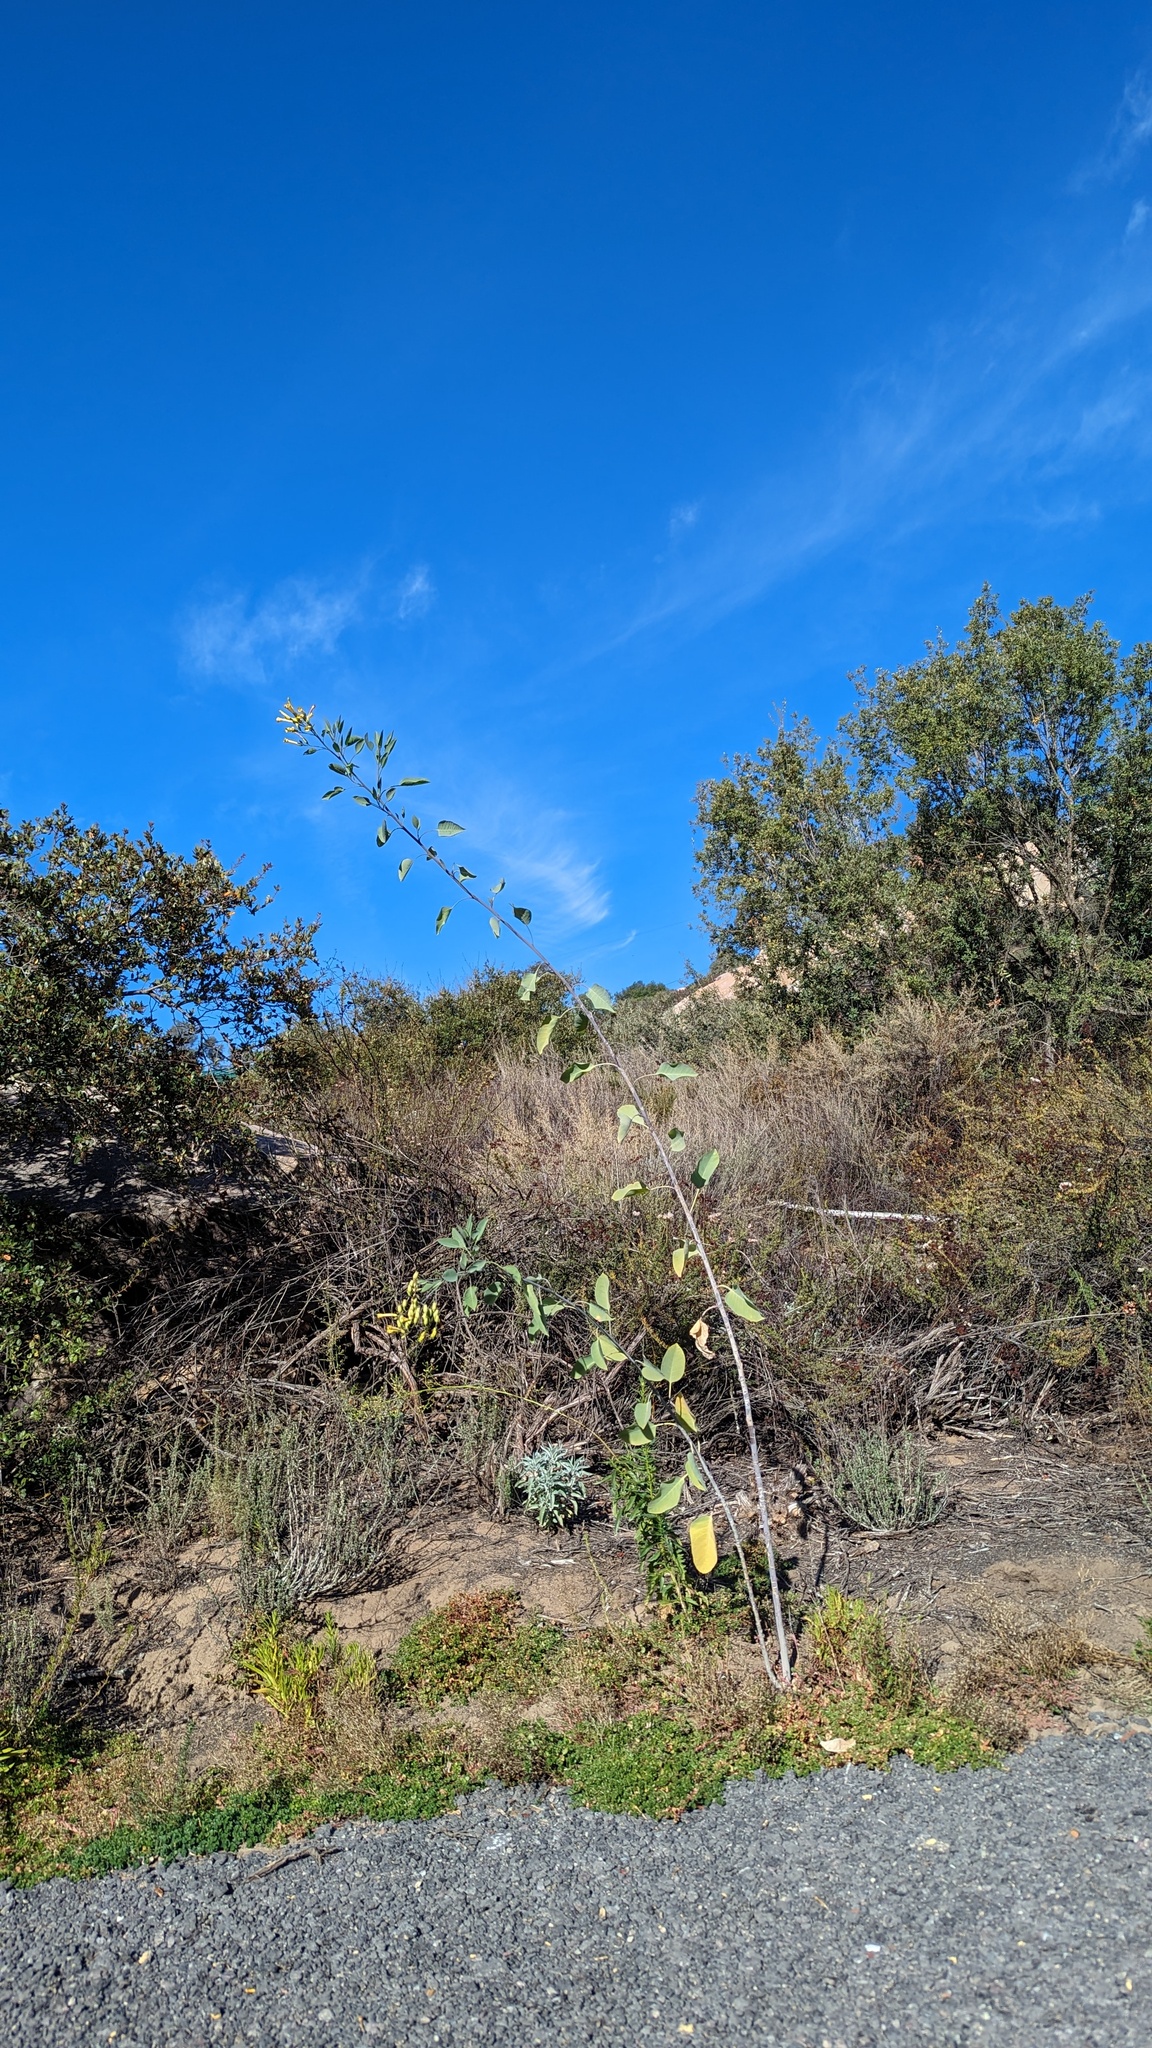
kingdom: Plantae
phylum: Tracheophyta
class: Magnoliopsida
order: Solanales
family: Solanaceae
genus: Nicotiana
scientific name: Nicotiana glauca
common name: Tree tobacco
